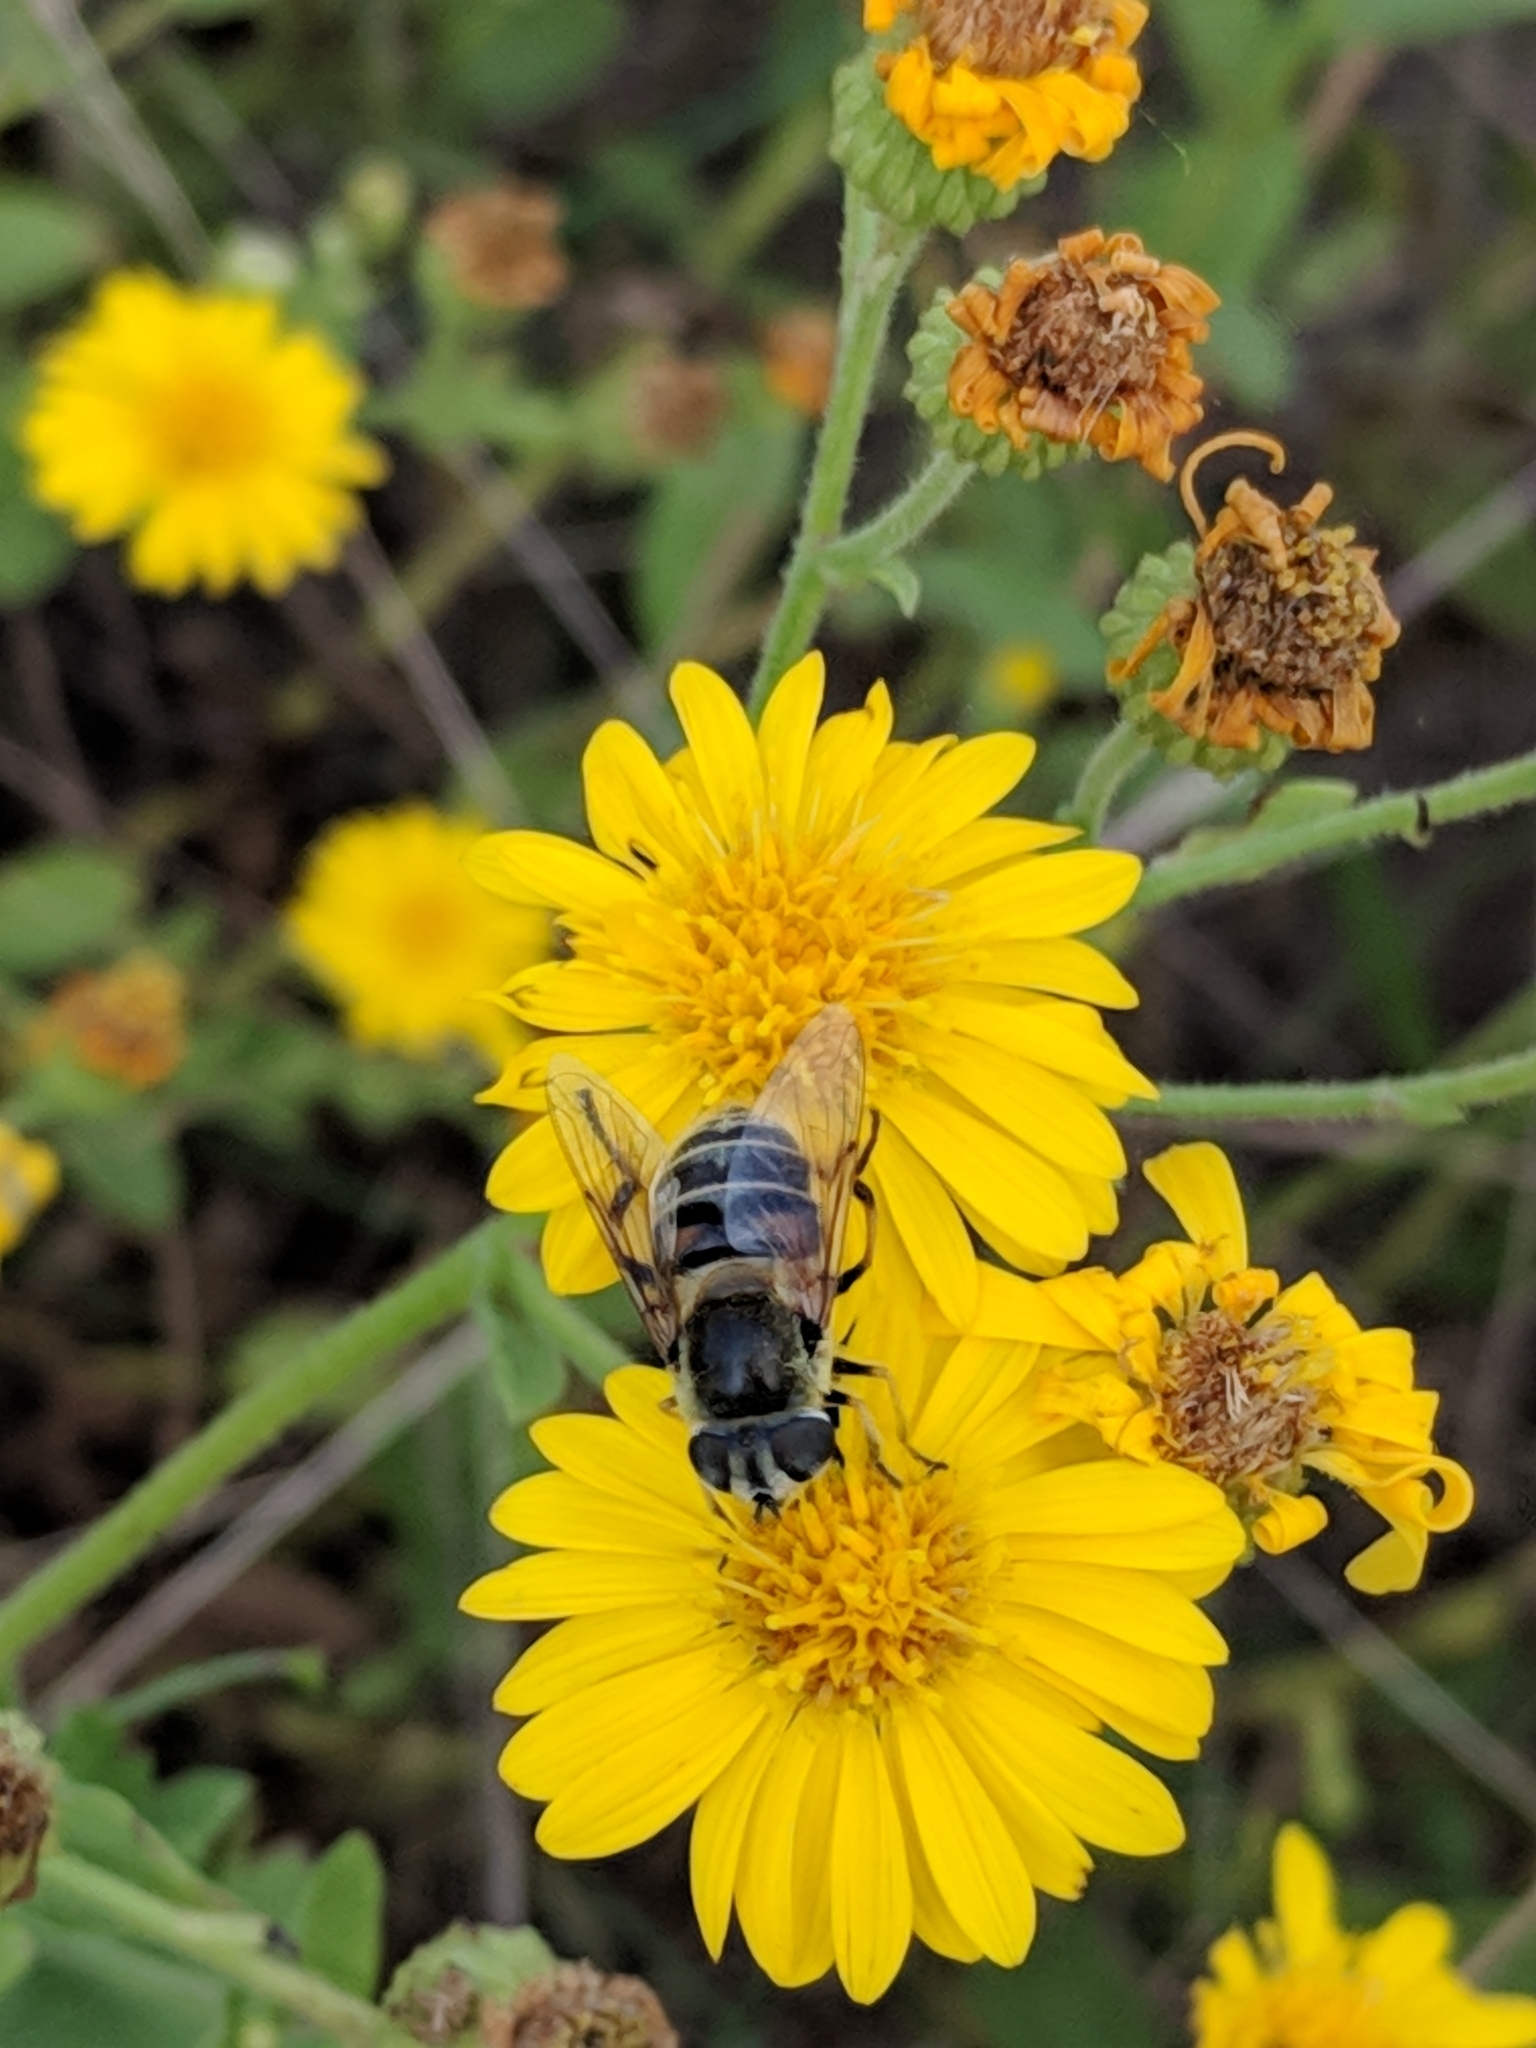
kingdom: Animalia
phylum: Arthropoda
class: Insecta
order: Diptera
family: Syrphidae
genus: Eristalis
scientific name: Eristalis stipator
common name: Yellow-shouldered drone fly
